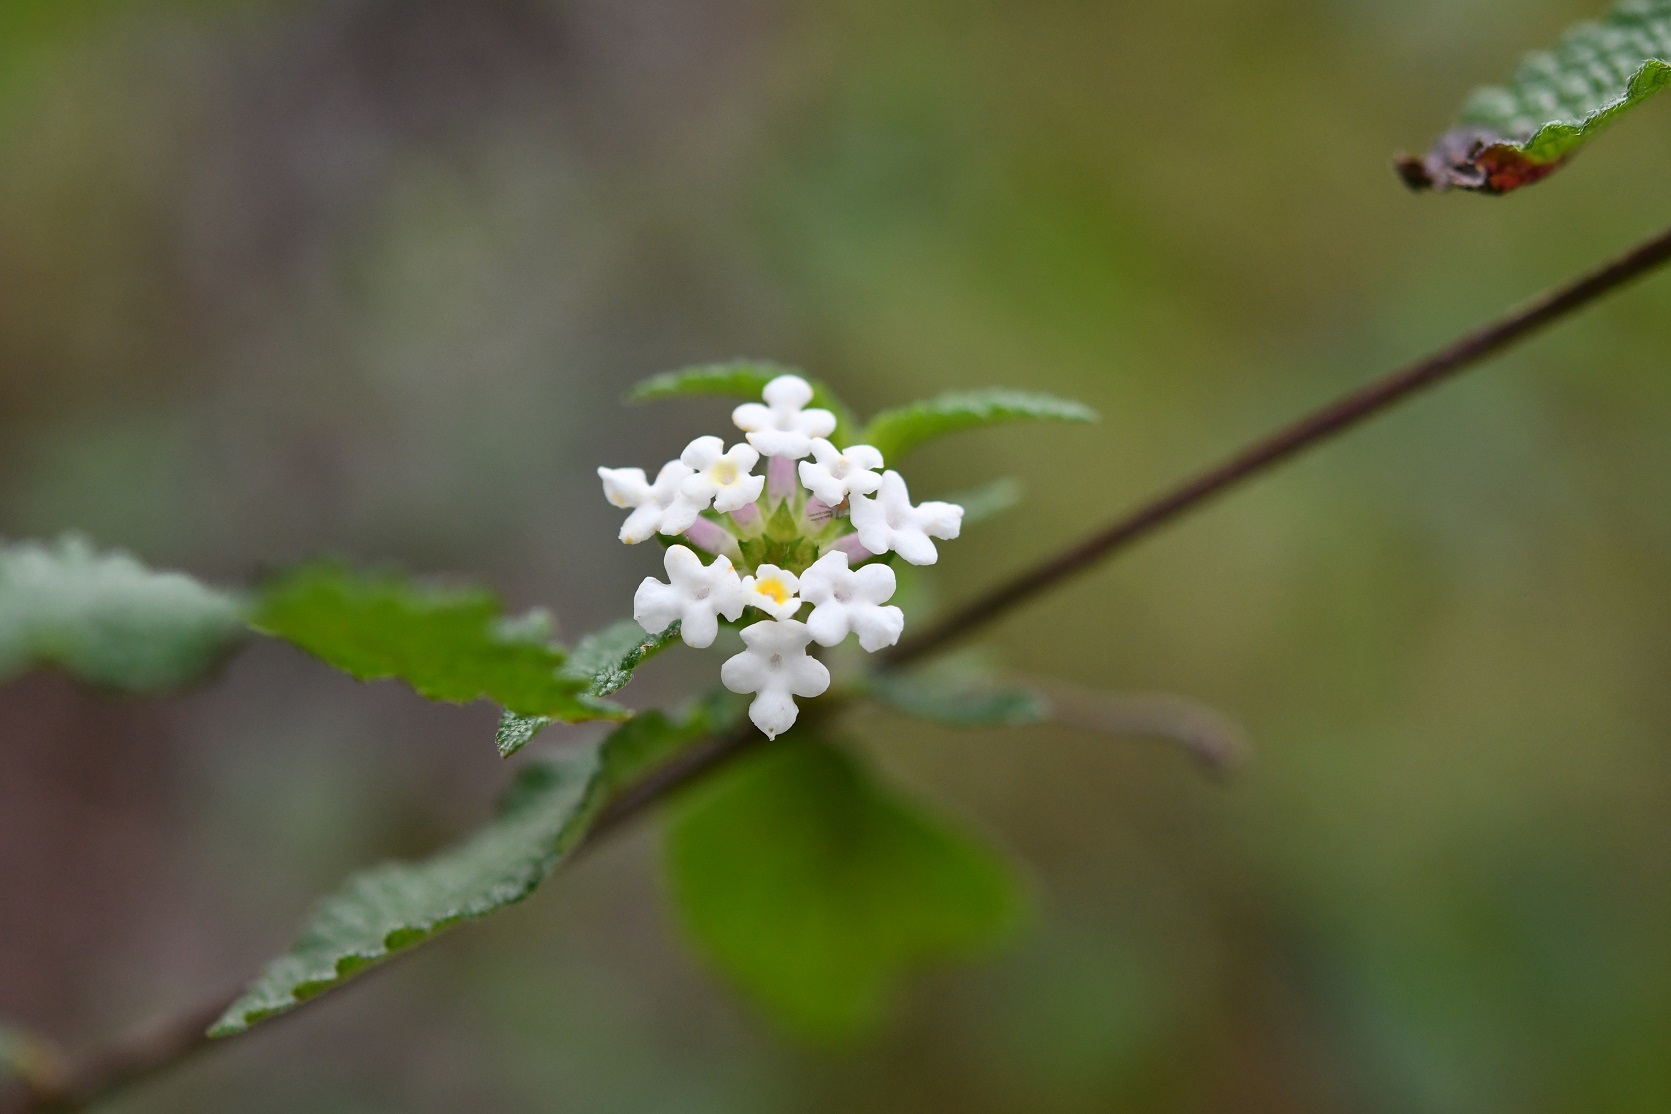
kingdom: Plantae
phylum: Tracheophyta
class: Magnoliopsida
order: Lamiales
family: Verbenaceae
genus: Lantana
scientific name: Lantana hirta
